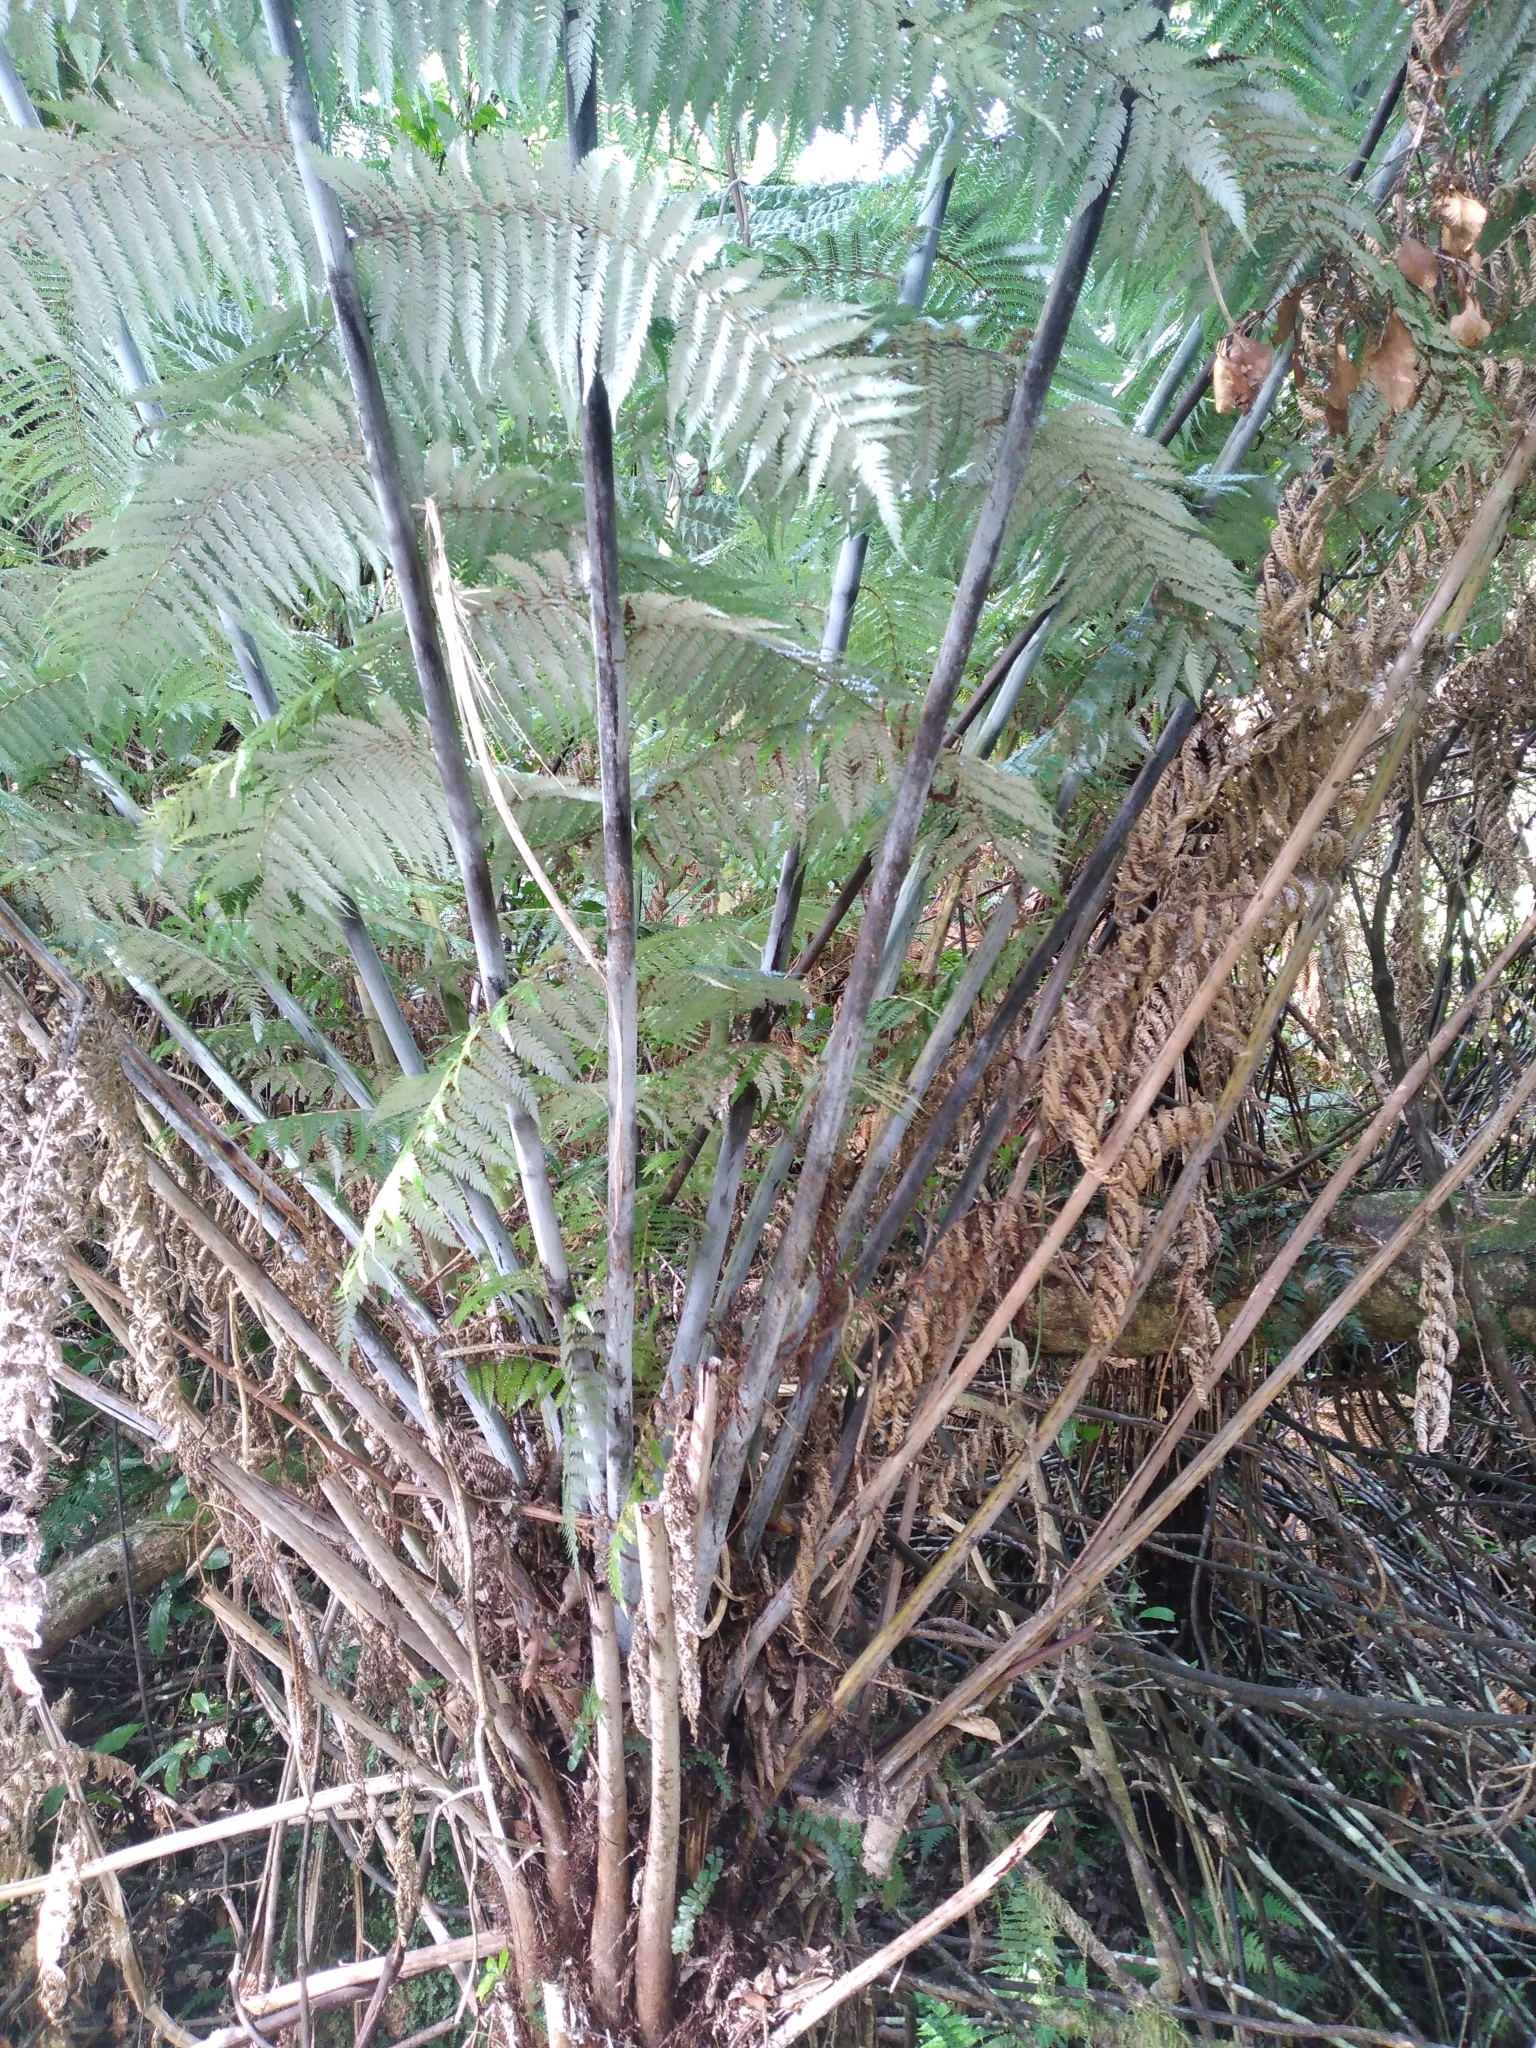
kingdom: Plantae
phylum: Tracheophyta
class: Polypodiopsida
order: Cyatheales
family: Cyatheaceae
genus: Alsophila
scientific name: Alsophila dealbata
